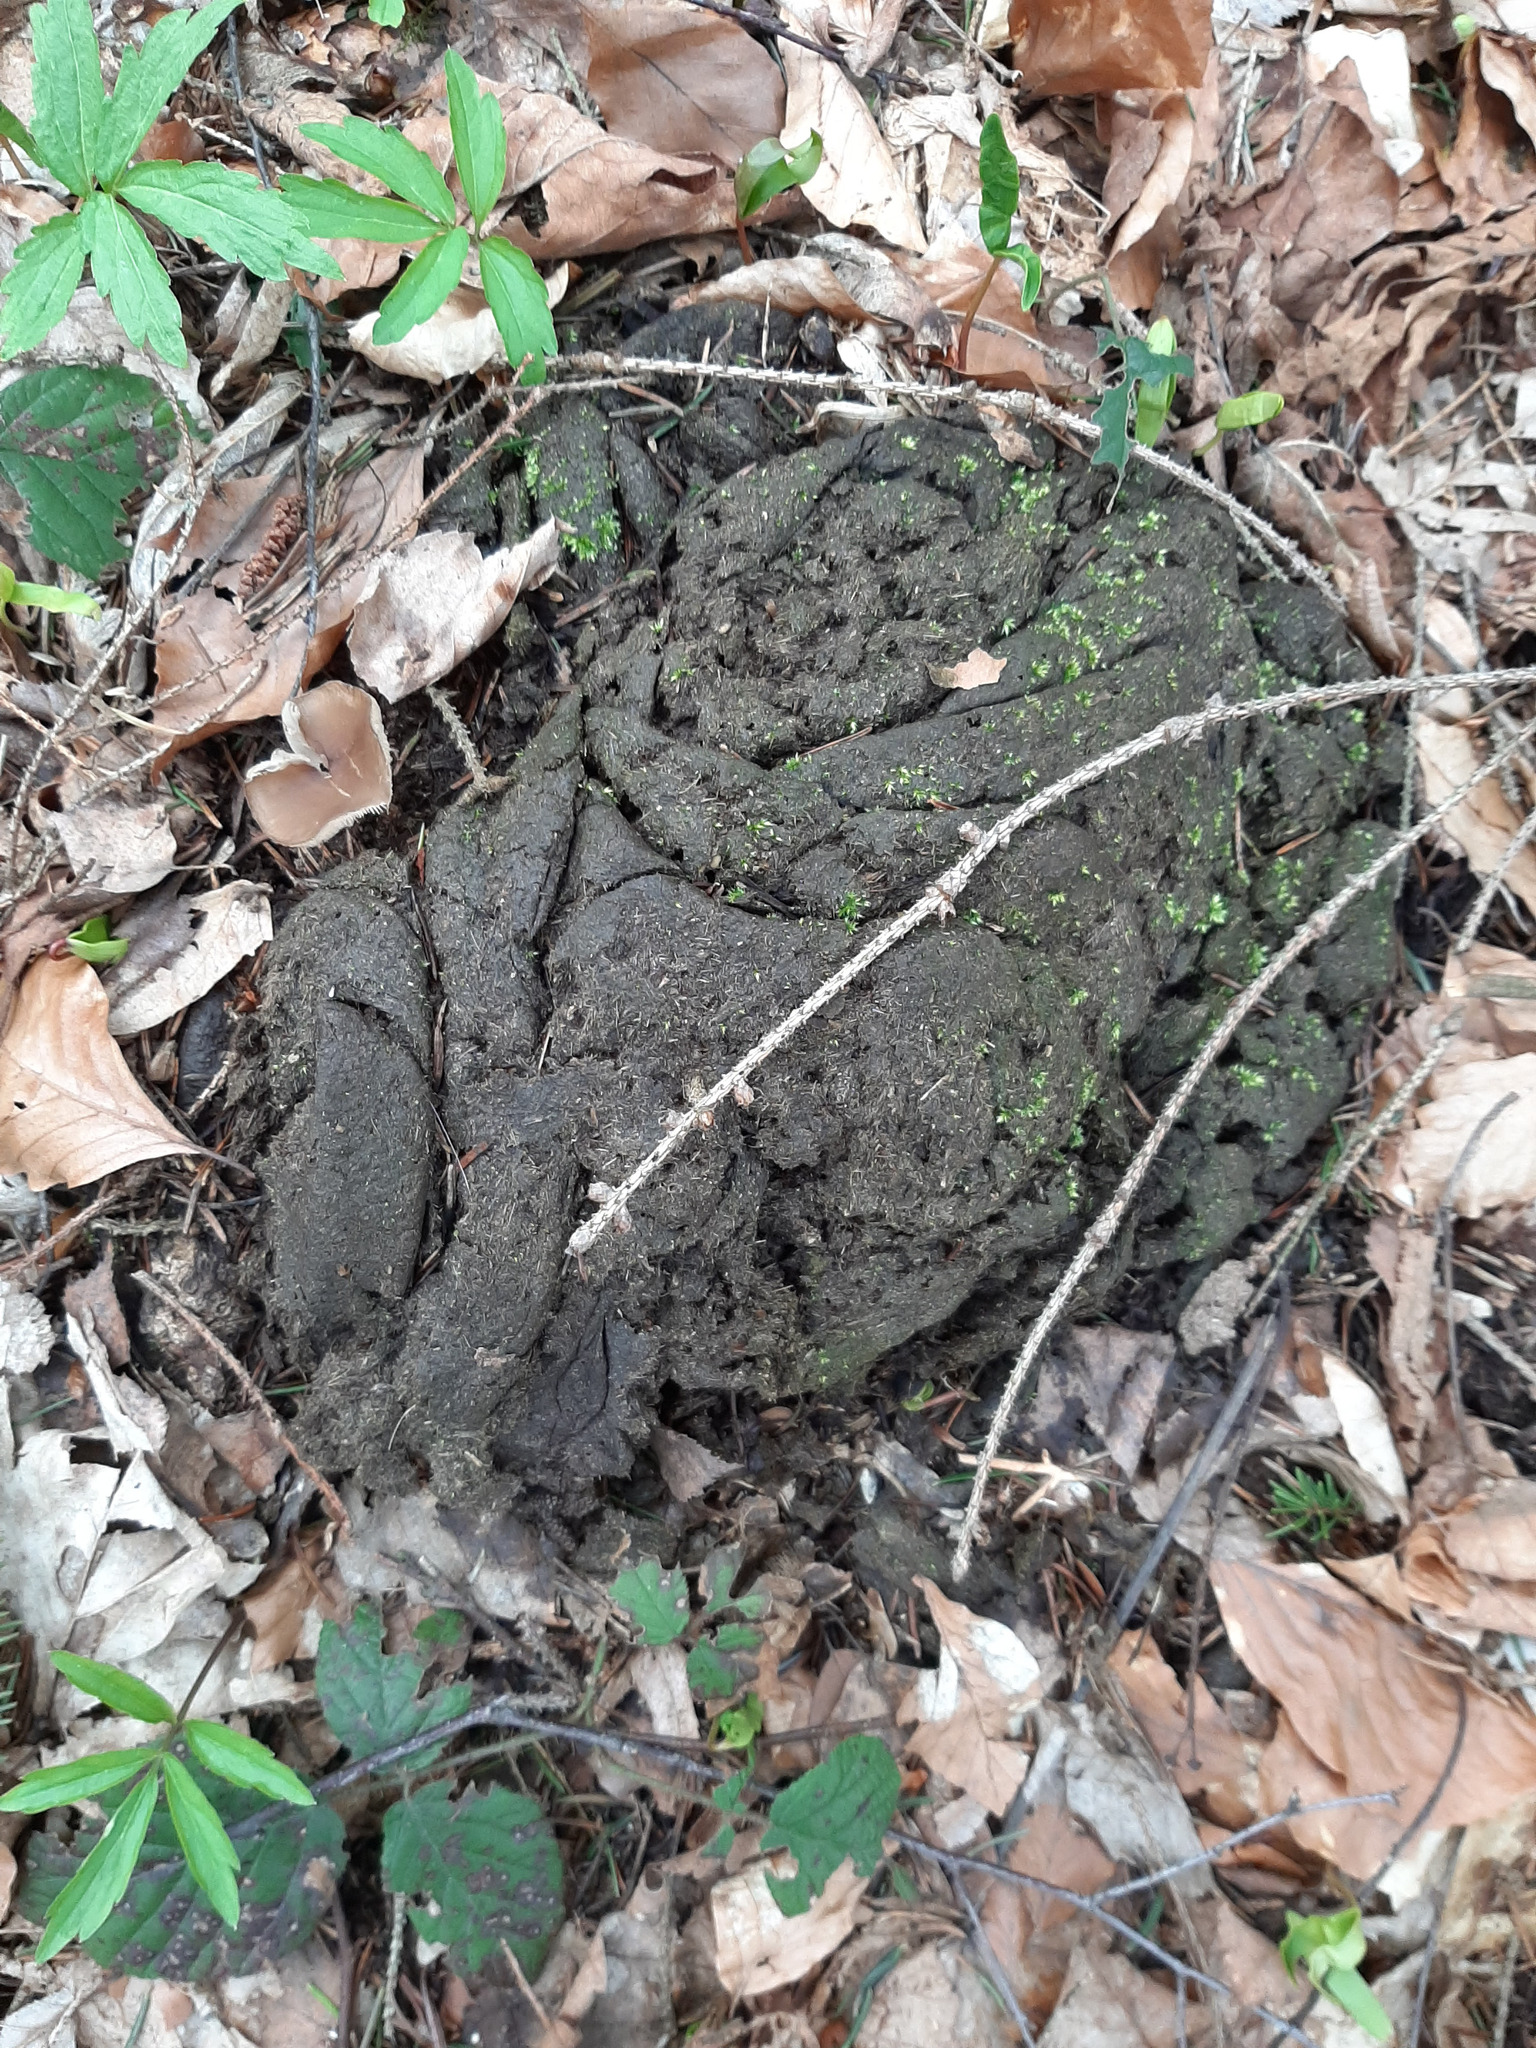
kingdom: Animalia
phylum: Chordata
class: Mammalia
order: Artiodactyla
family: Bovidae
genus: Bison
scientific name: Bison bonasus
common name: European bison
